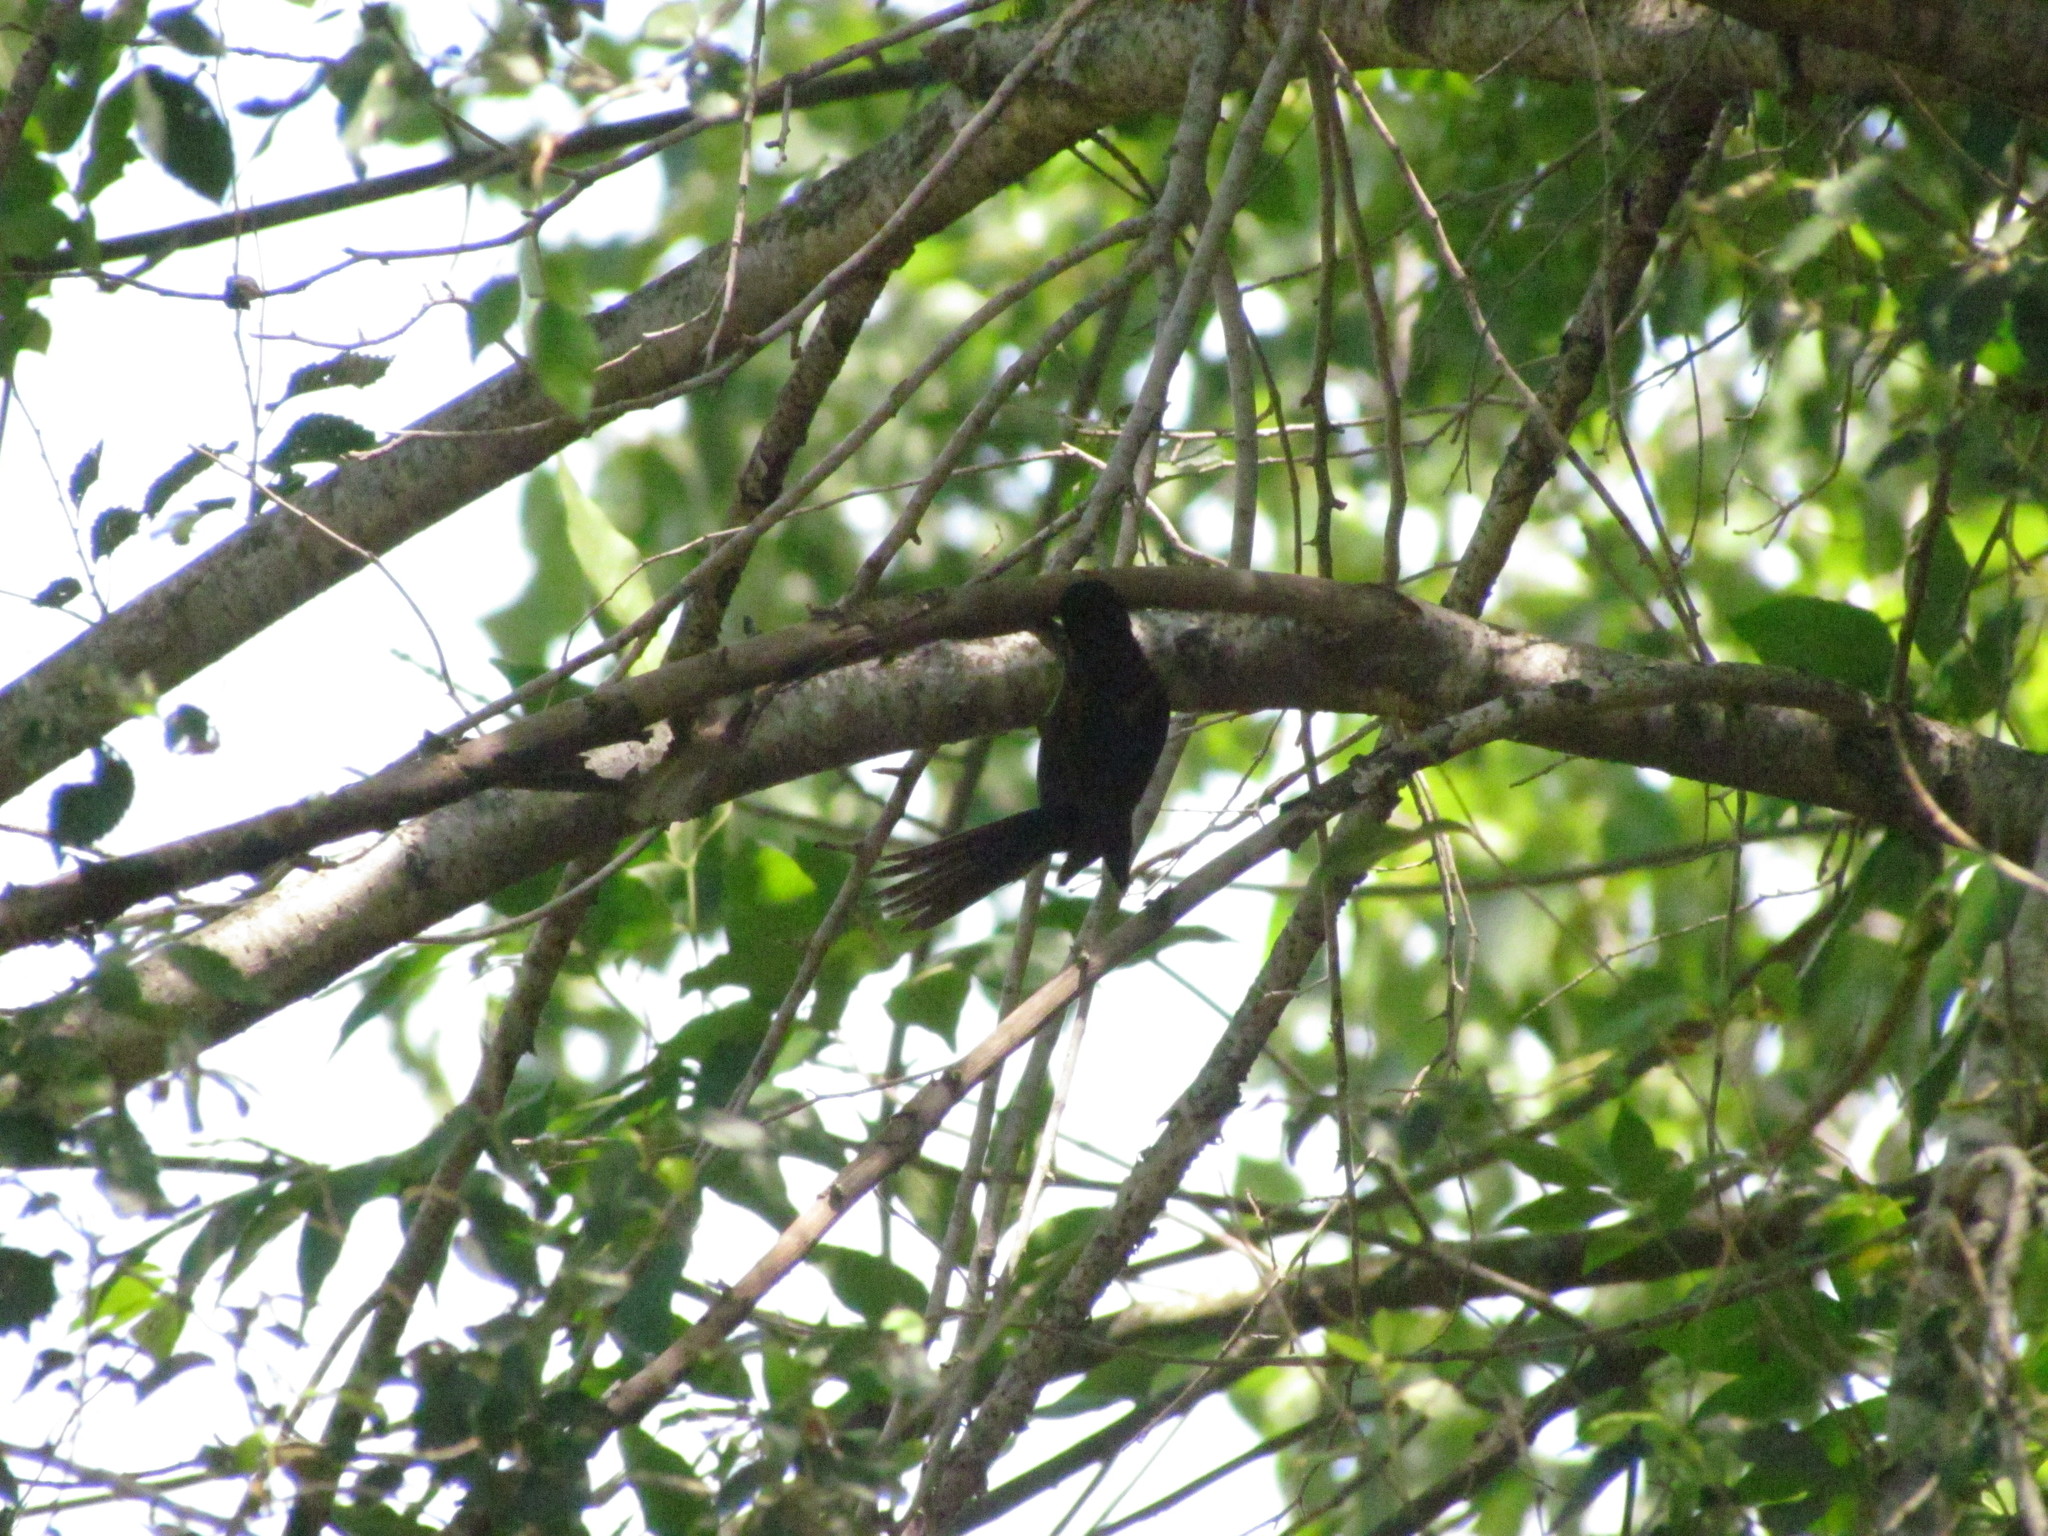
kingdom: Animalia
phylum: Chordata
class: Aves
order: Passeriformes
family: Icteridae
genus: Icterus
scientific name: Icterus cayanensis
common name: Epaulet oriole
